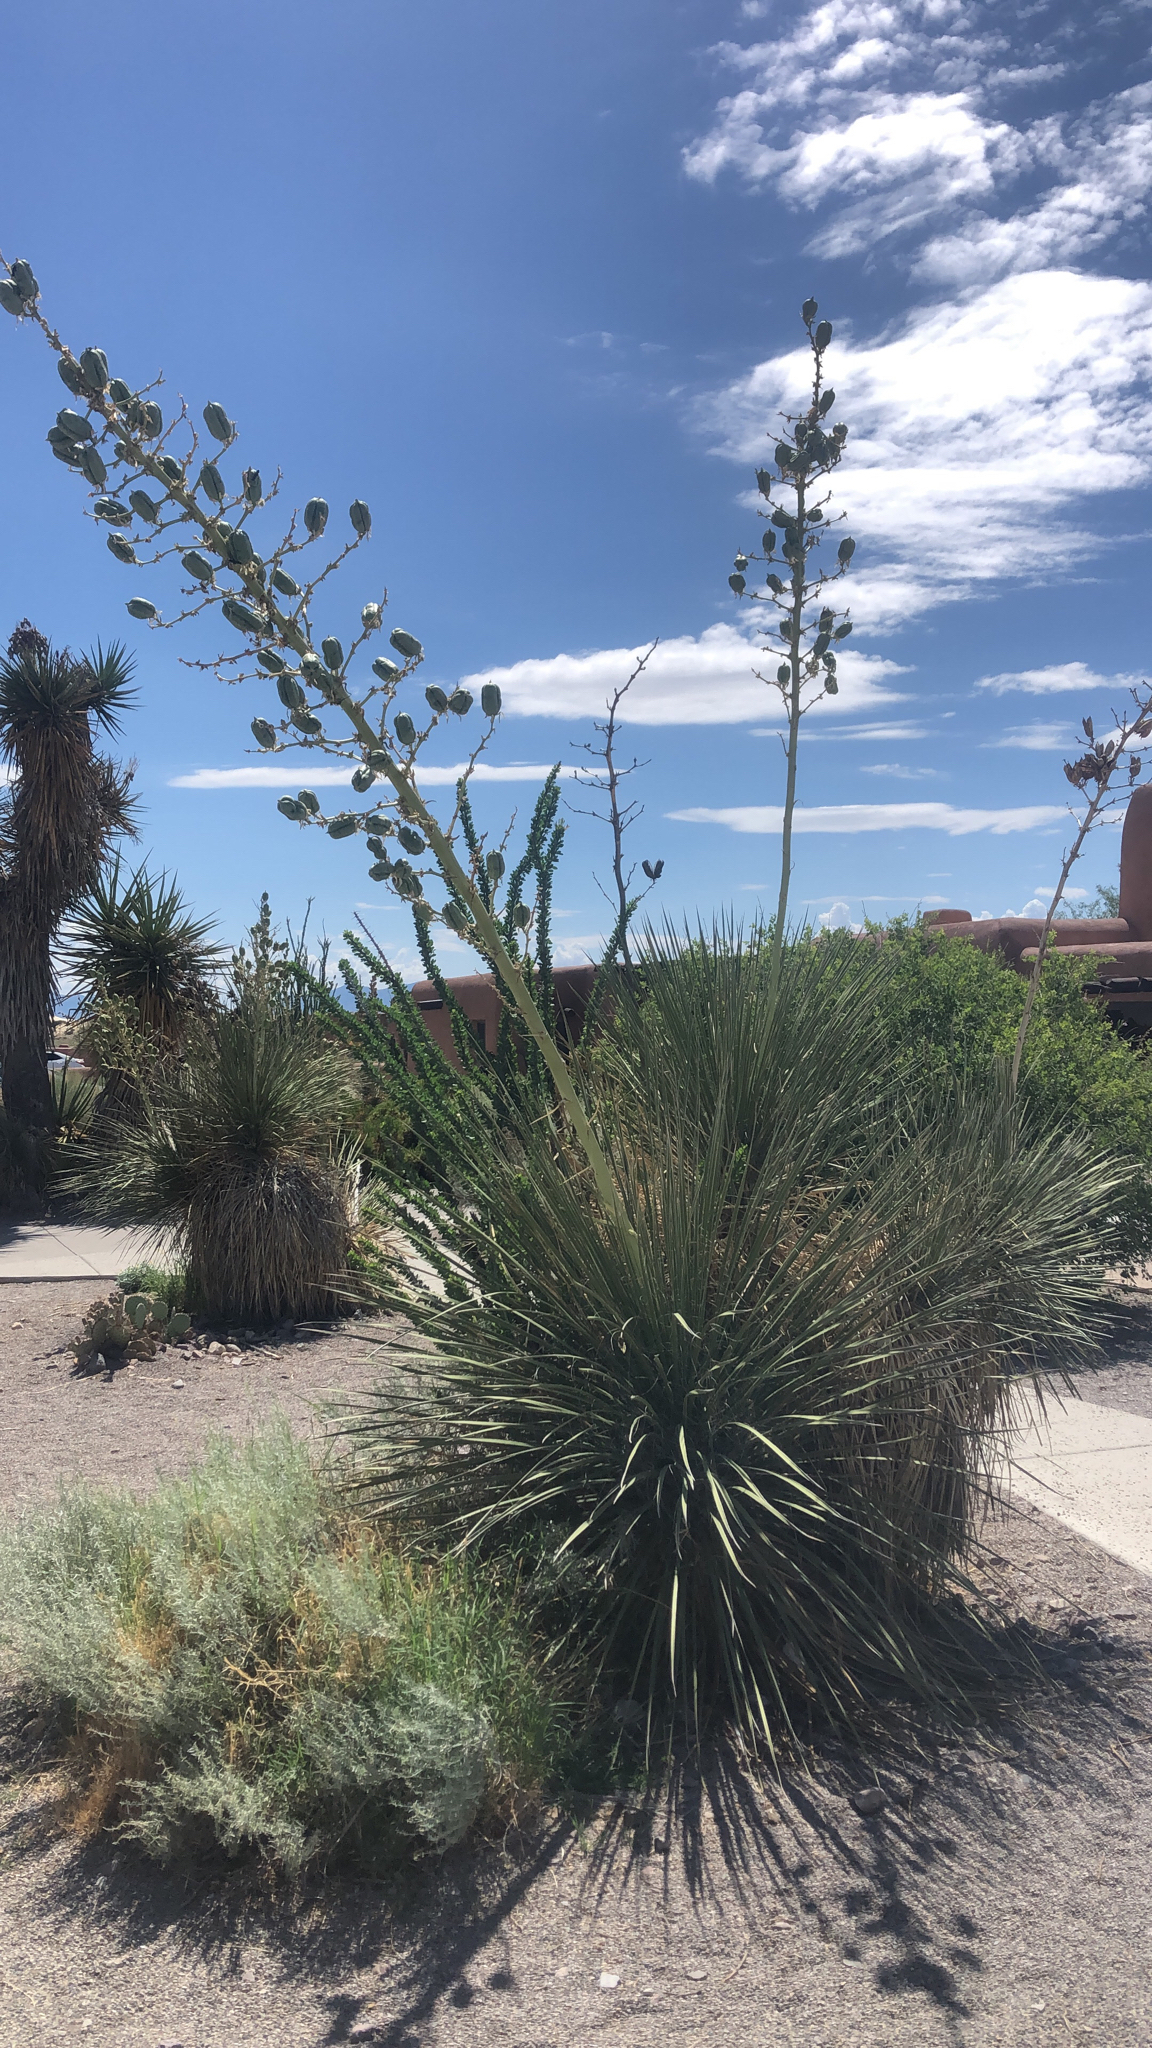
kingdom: Plantae
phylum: Tracheophyta
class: Liliopsida
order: Asparagales
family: Asparagaceae
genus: Yucca
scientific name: Yucca elata
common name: Palmella
